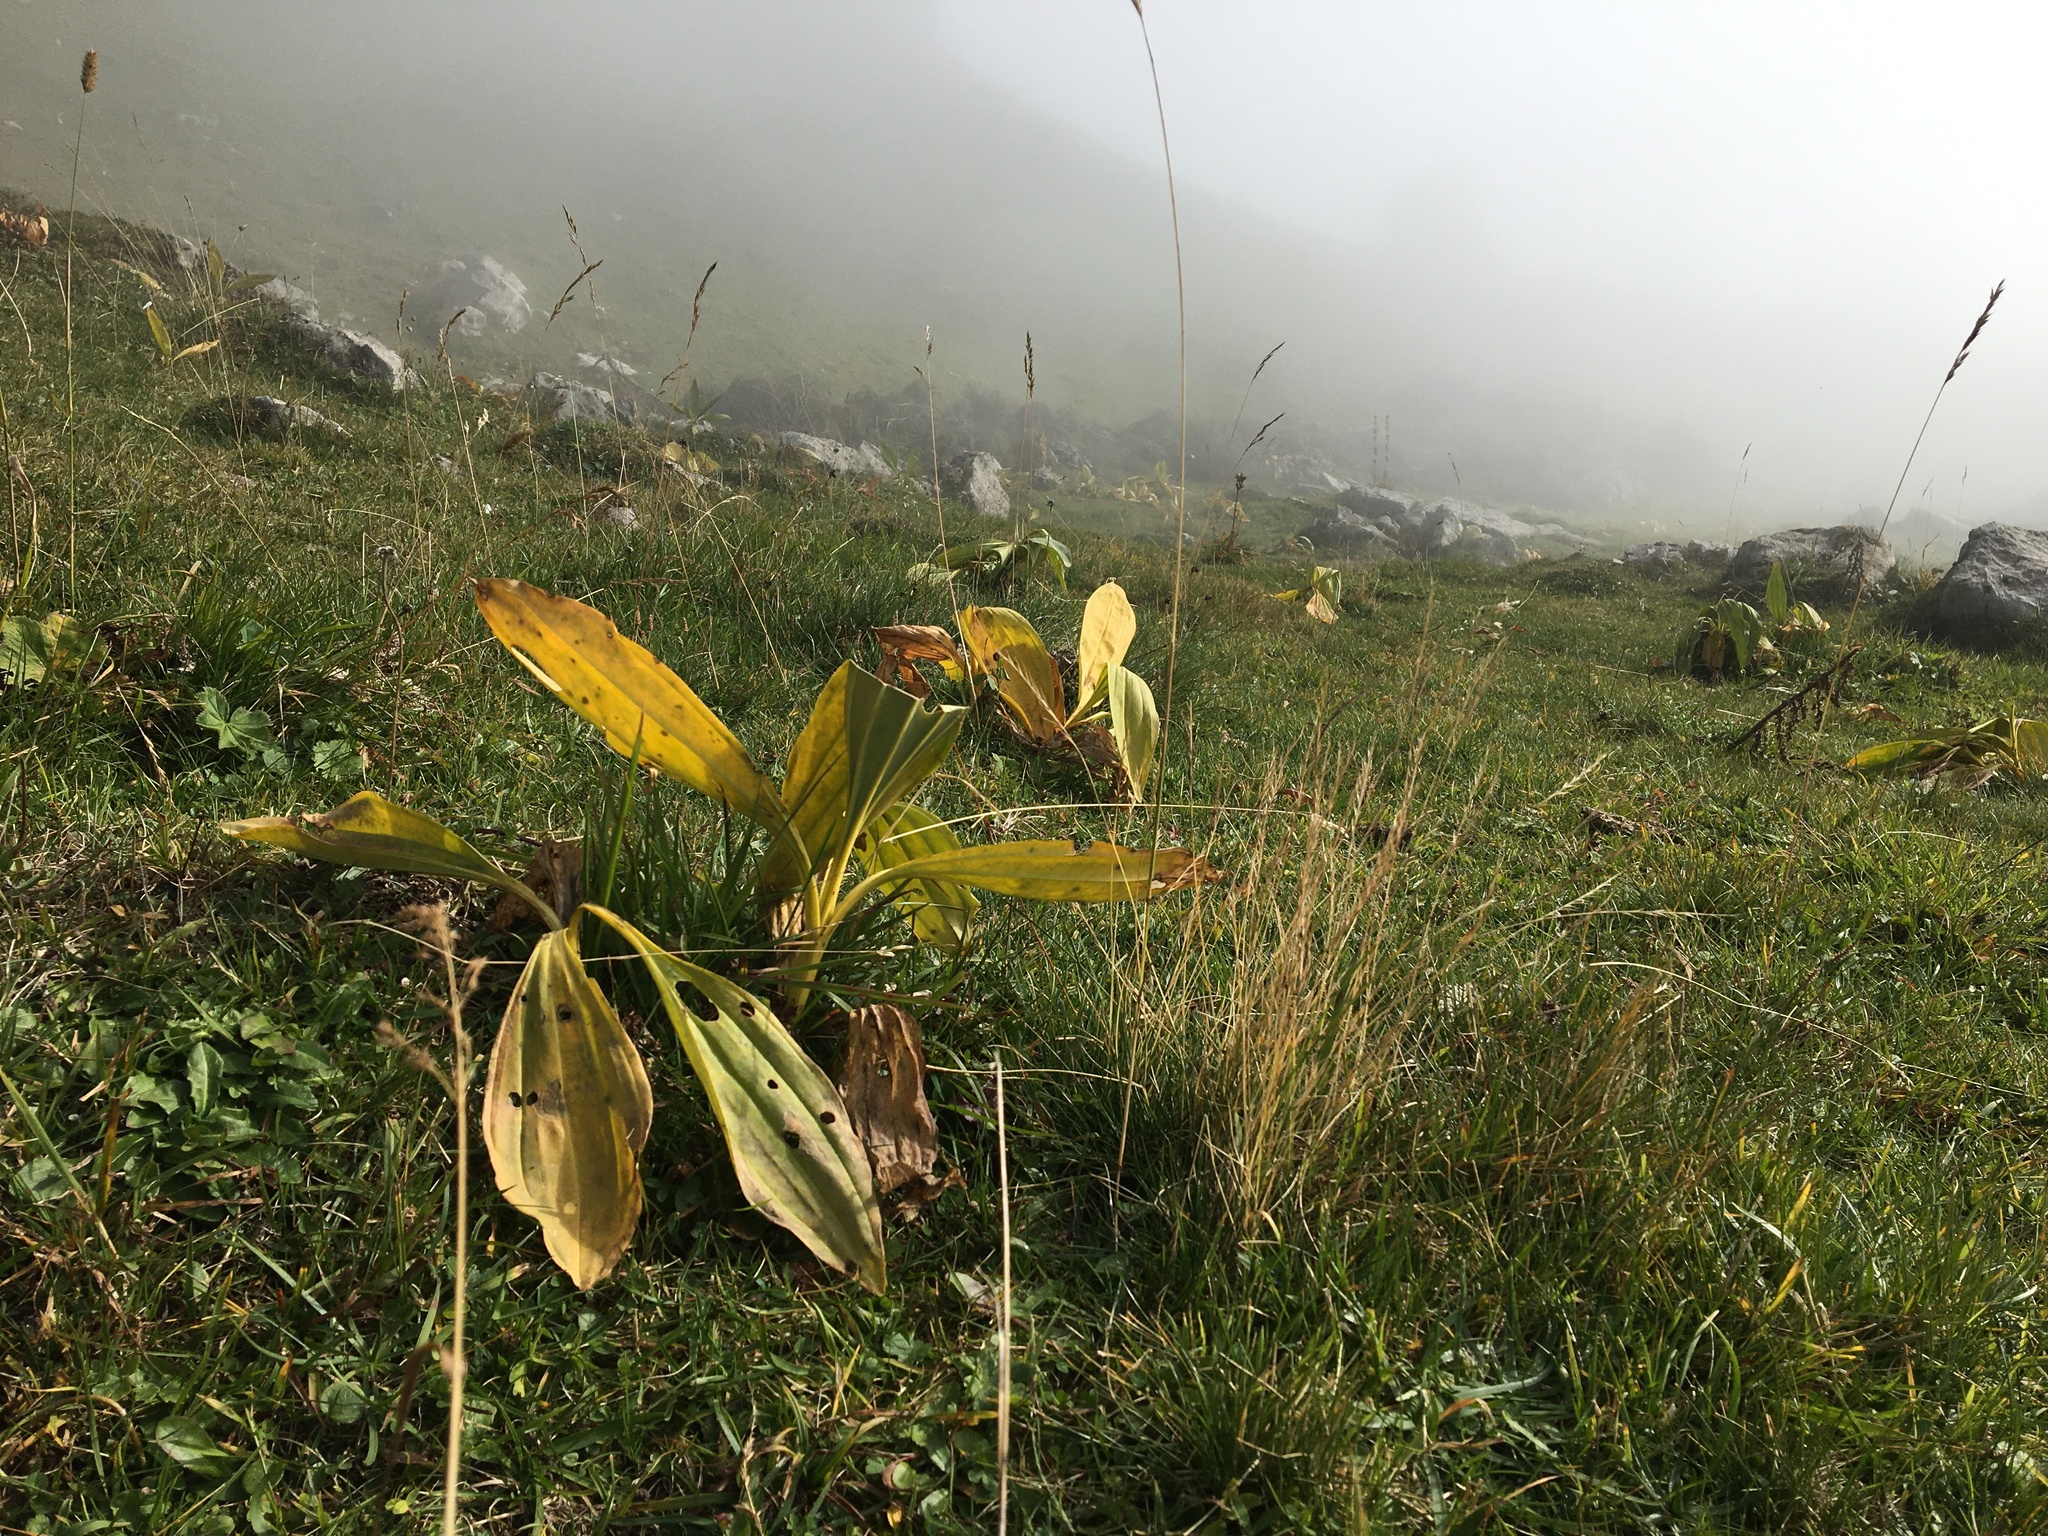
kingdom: Plantae
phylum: Tracheophyta
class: Magnoliopsida
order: Gentianales
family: Gentianaceae
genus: Gentiana
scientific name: Gentiana lutea
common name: Great yellow gentian
